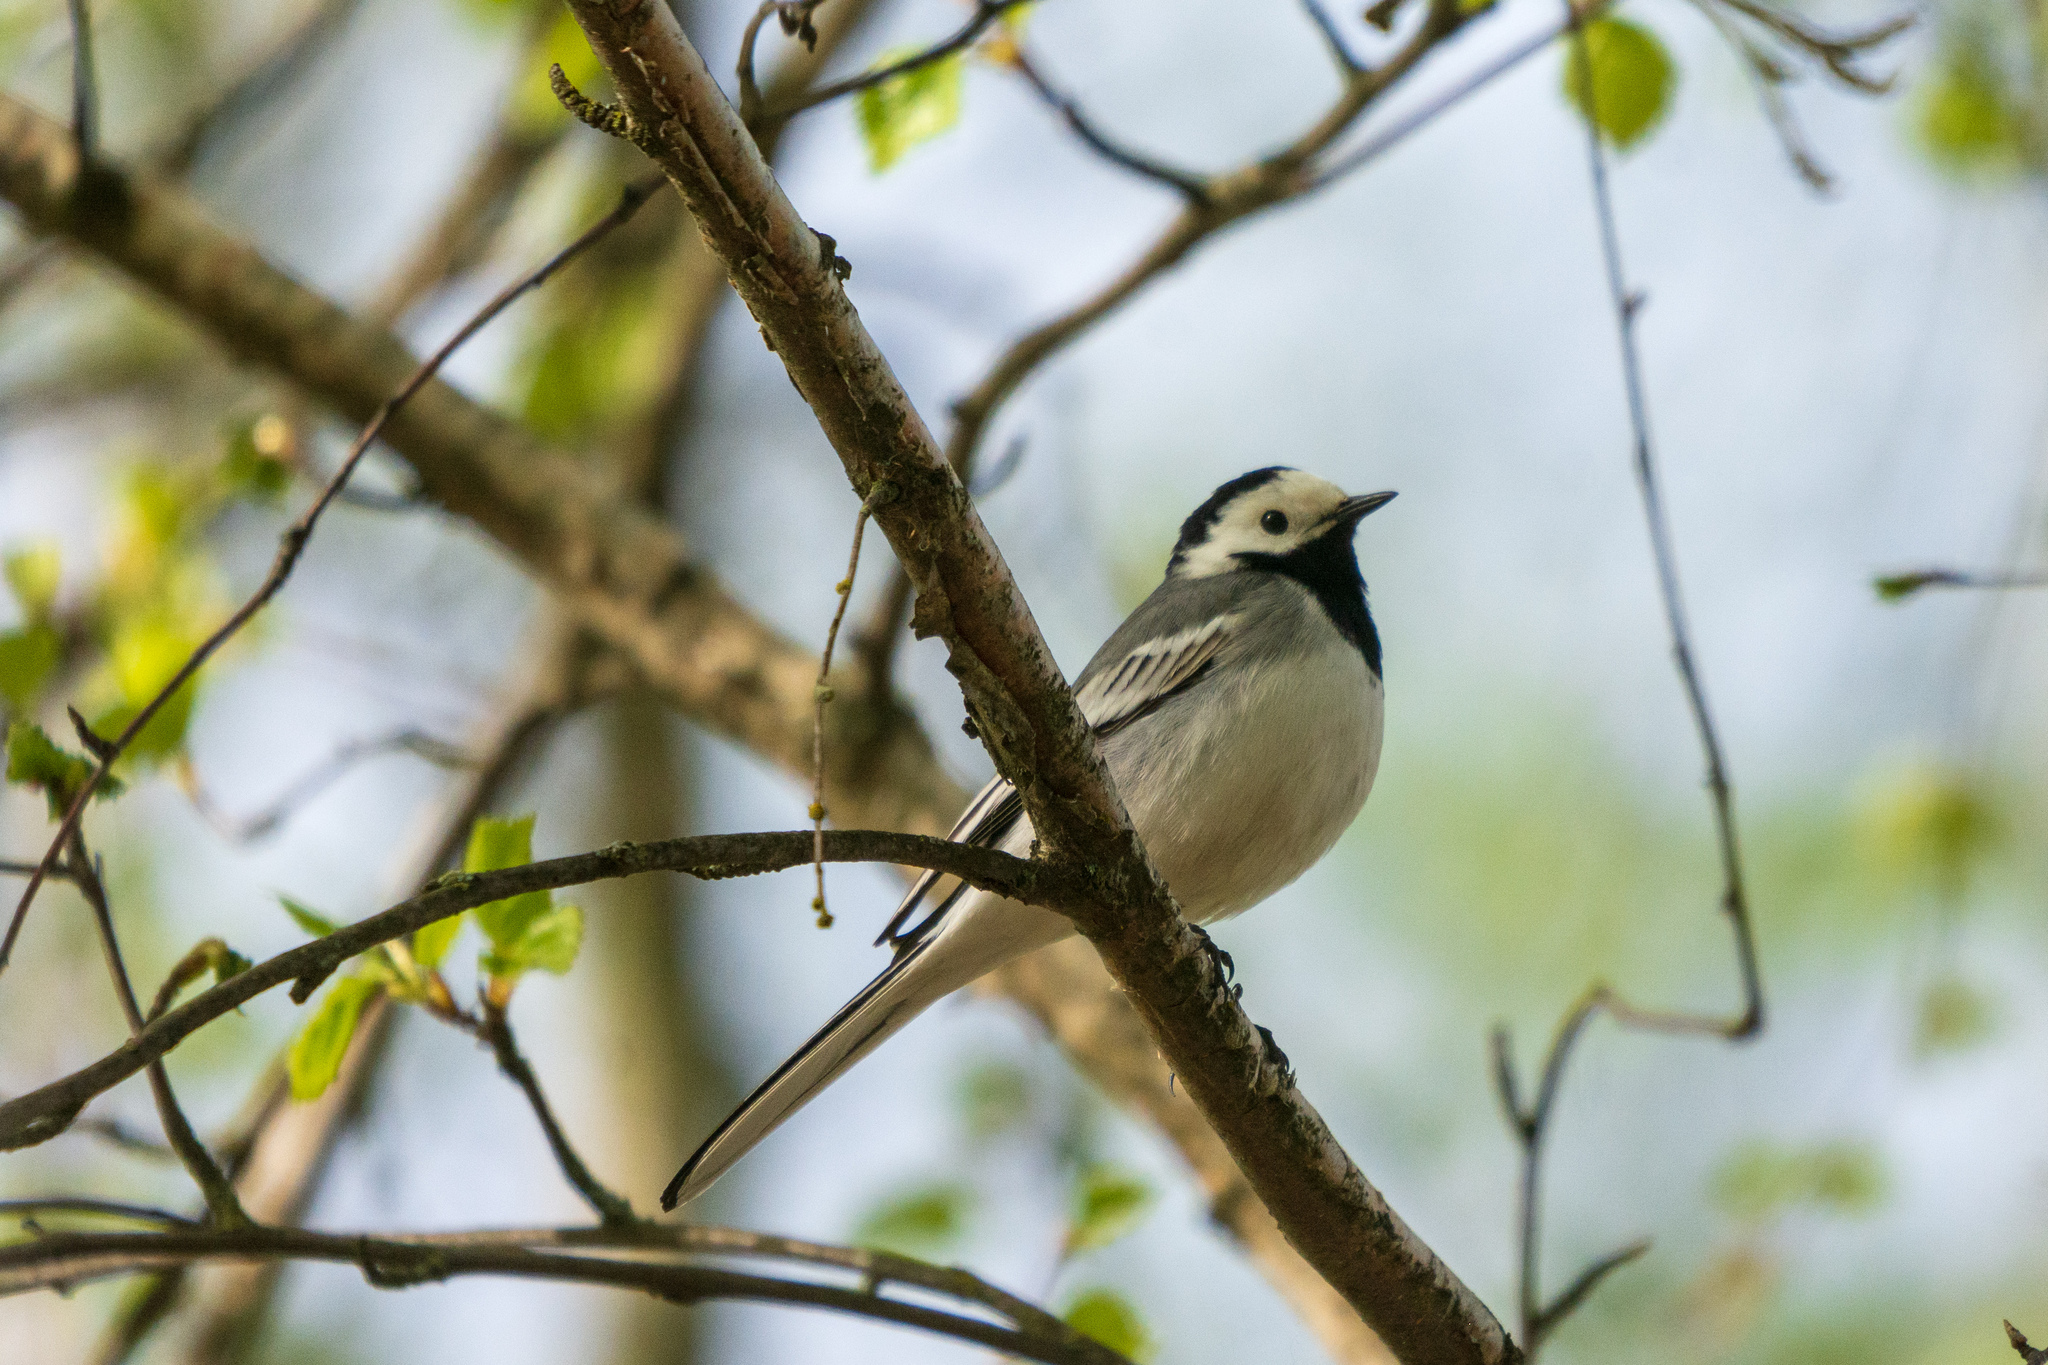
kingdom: Animalia
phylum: Chordata
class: Aves
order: Passeriformes
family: Motacillidae
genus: Motacilla
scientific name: Motacilla alba
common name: White wagtail
